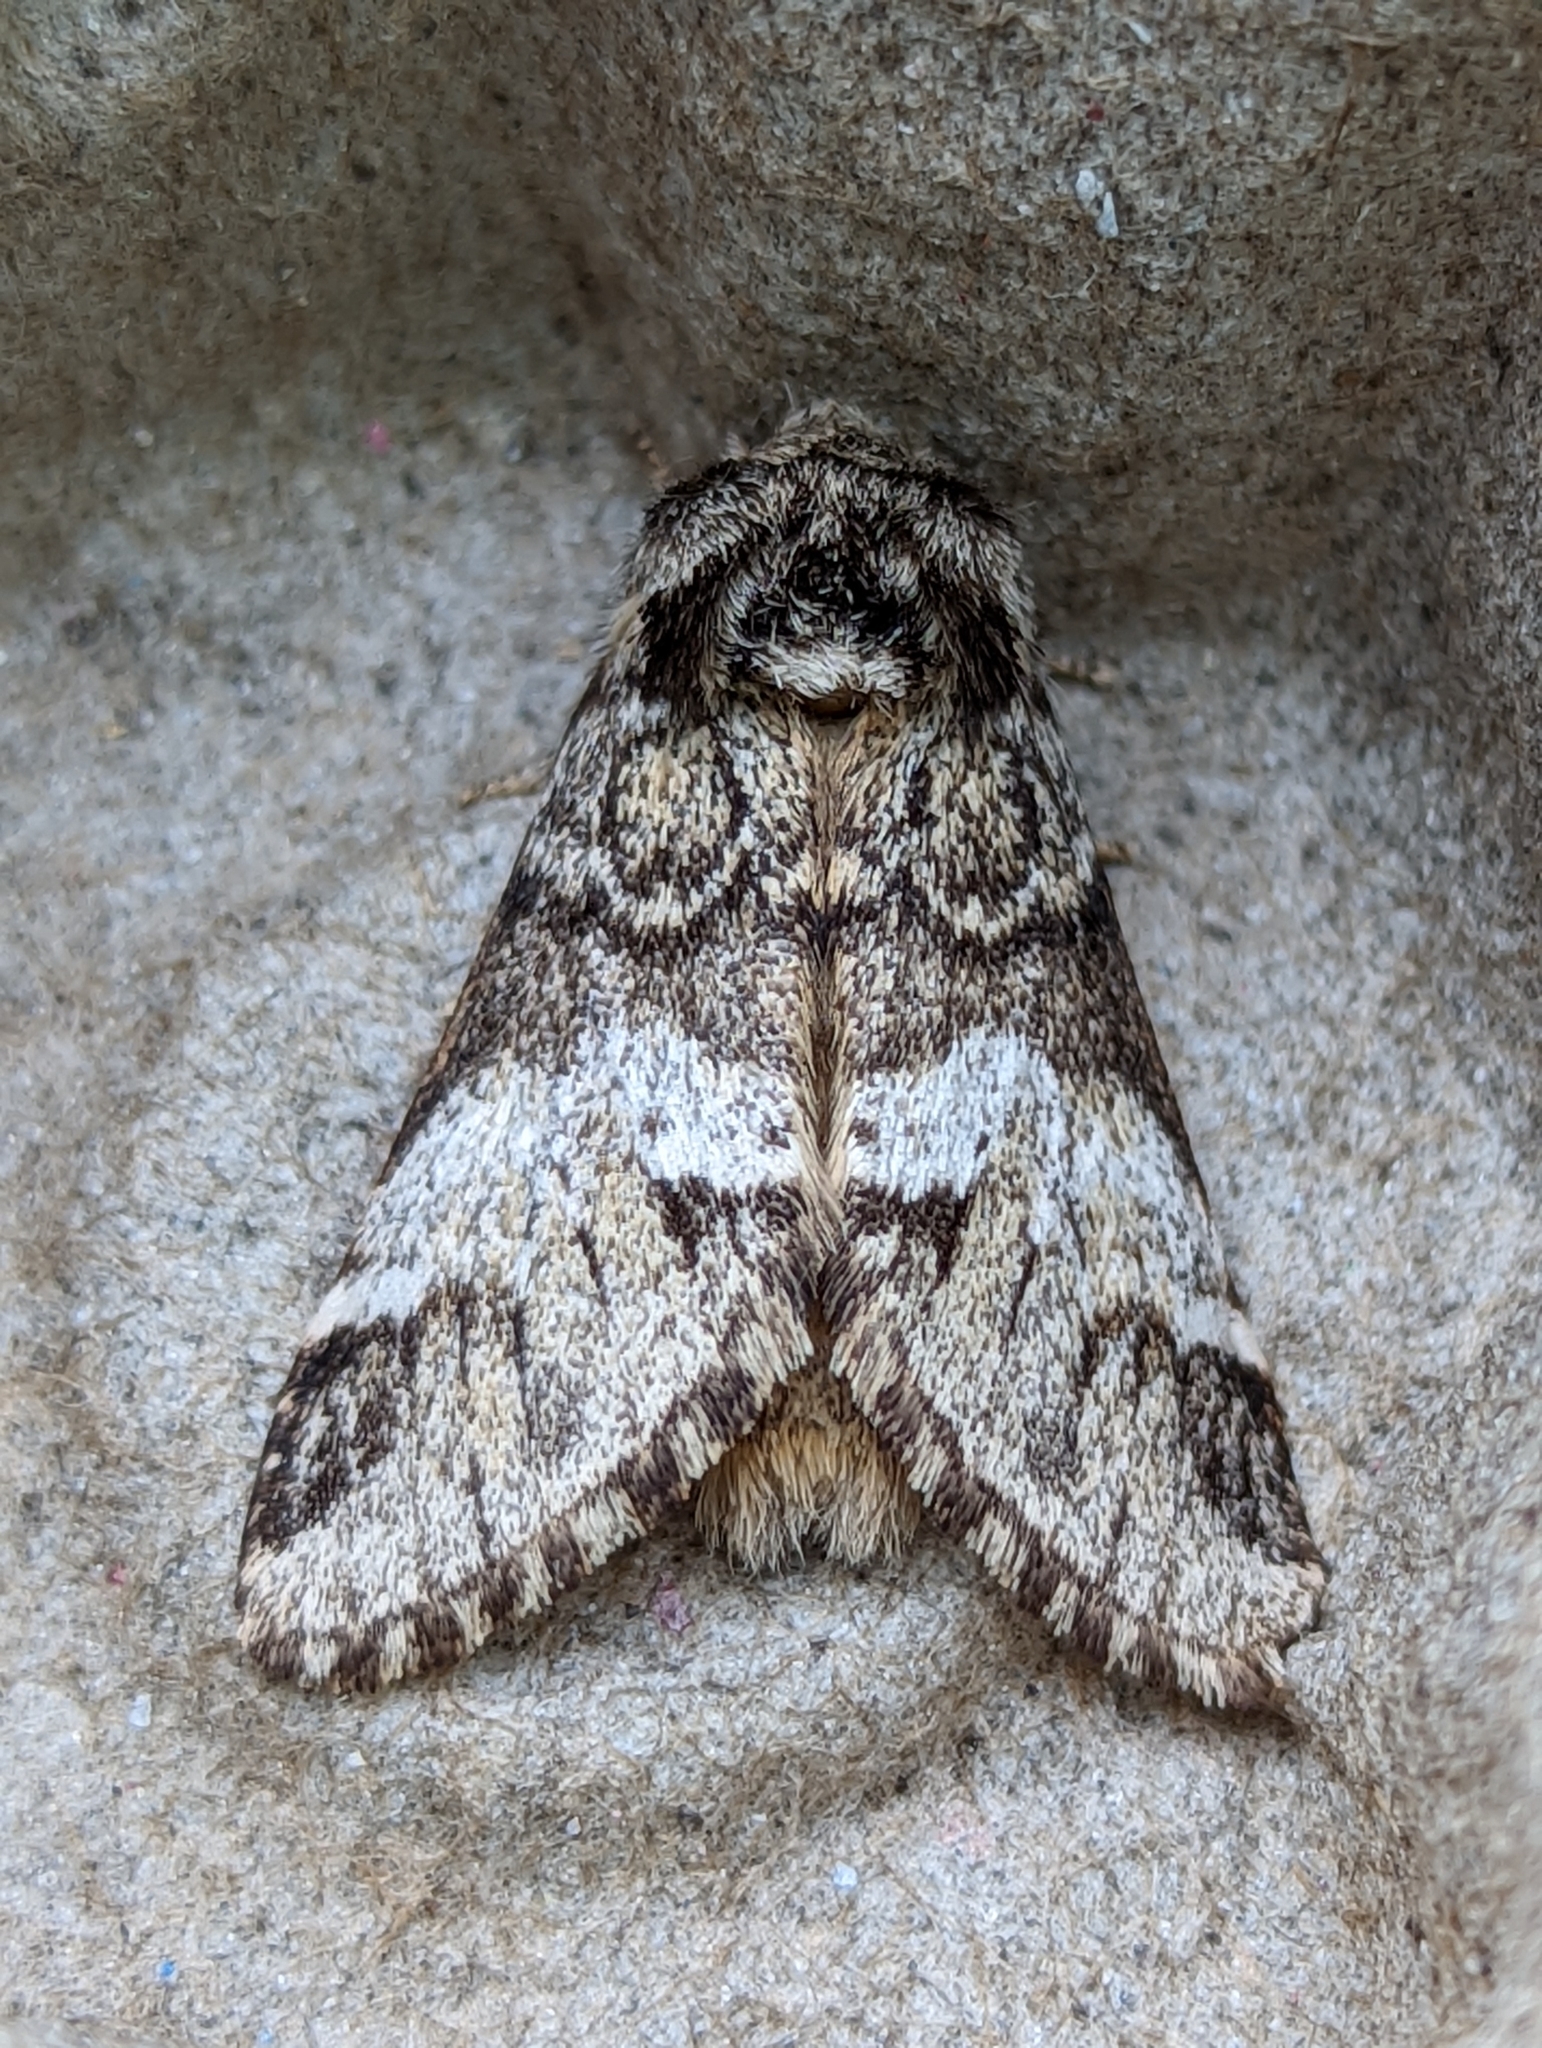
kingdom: Animalia
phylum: Arthropoda
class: Insecta
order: Lepidoptera
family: Notodontidae
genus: Drymonia
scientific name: Drymonia dodonaea
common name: Marbled brown
